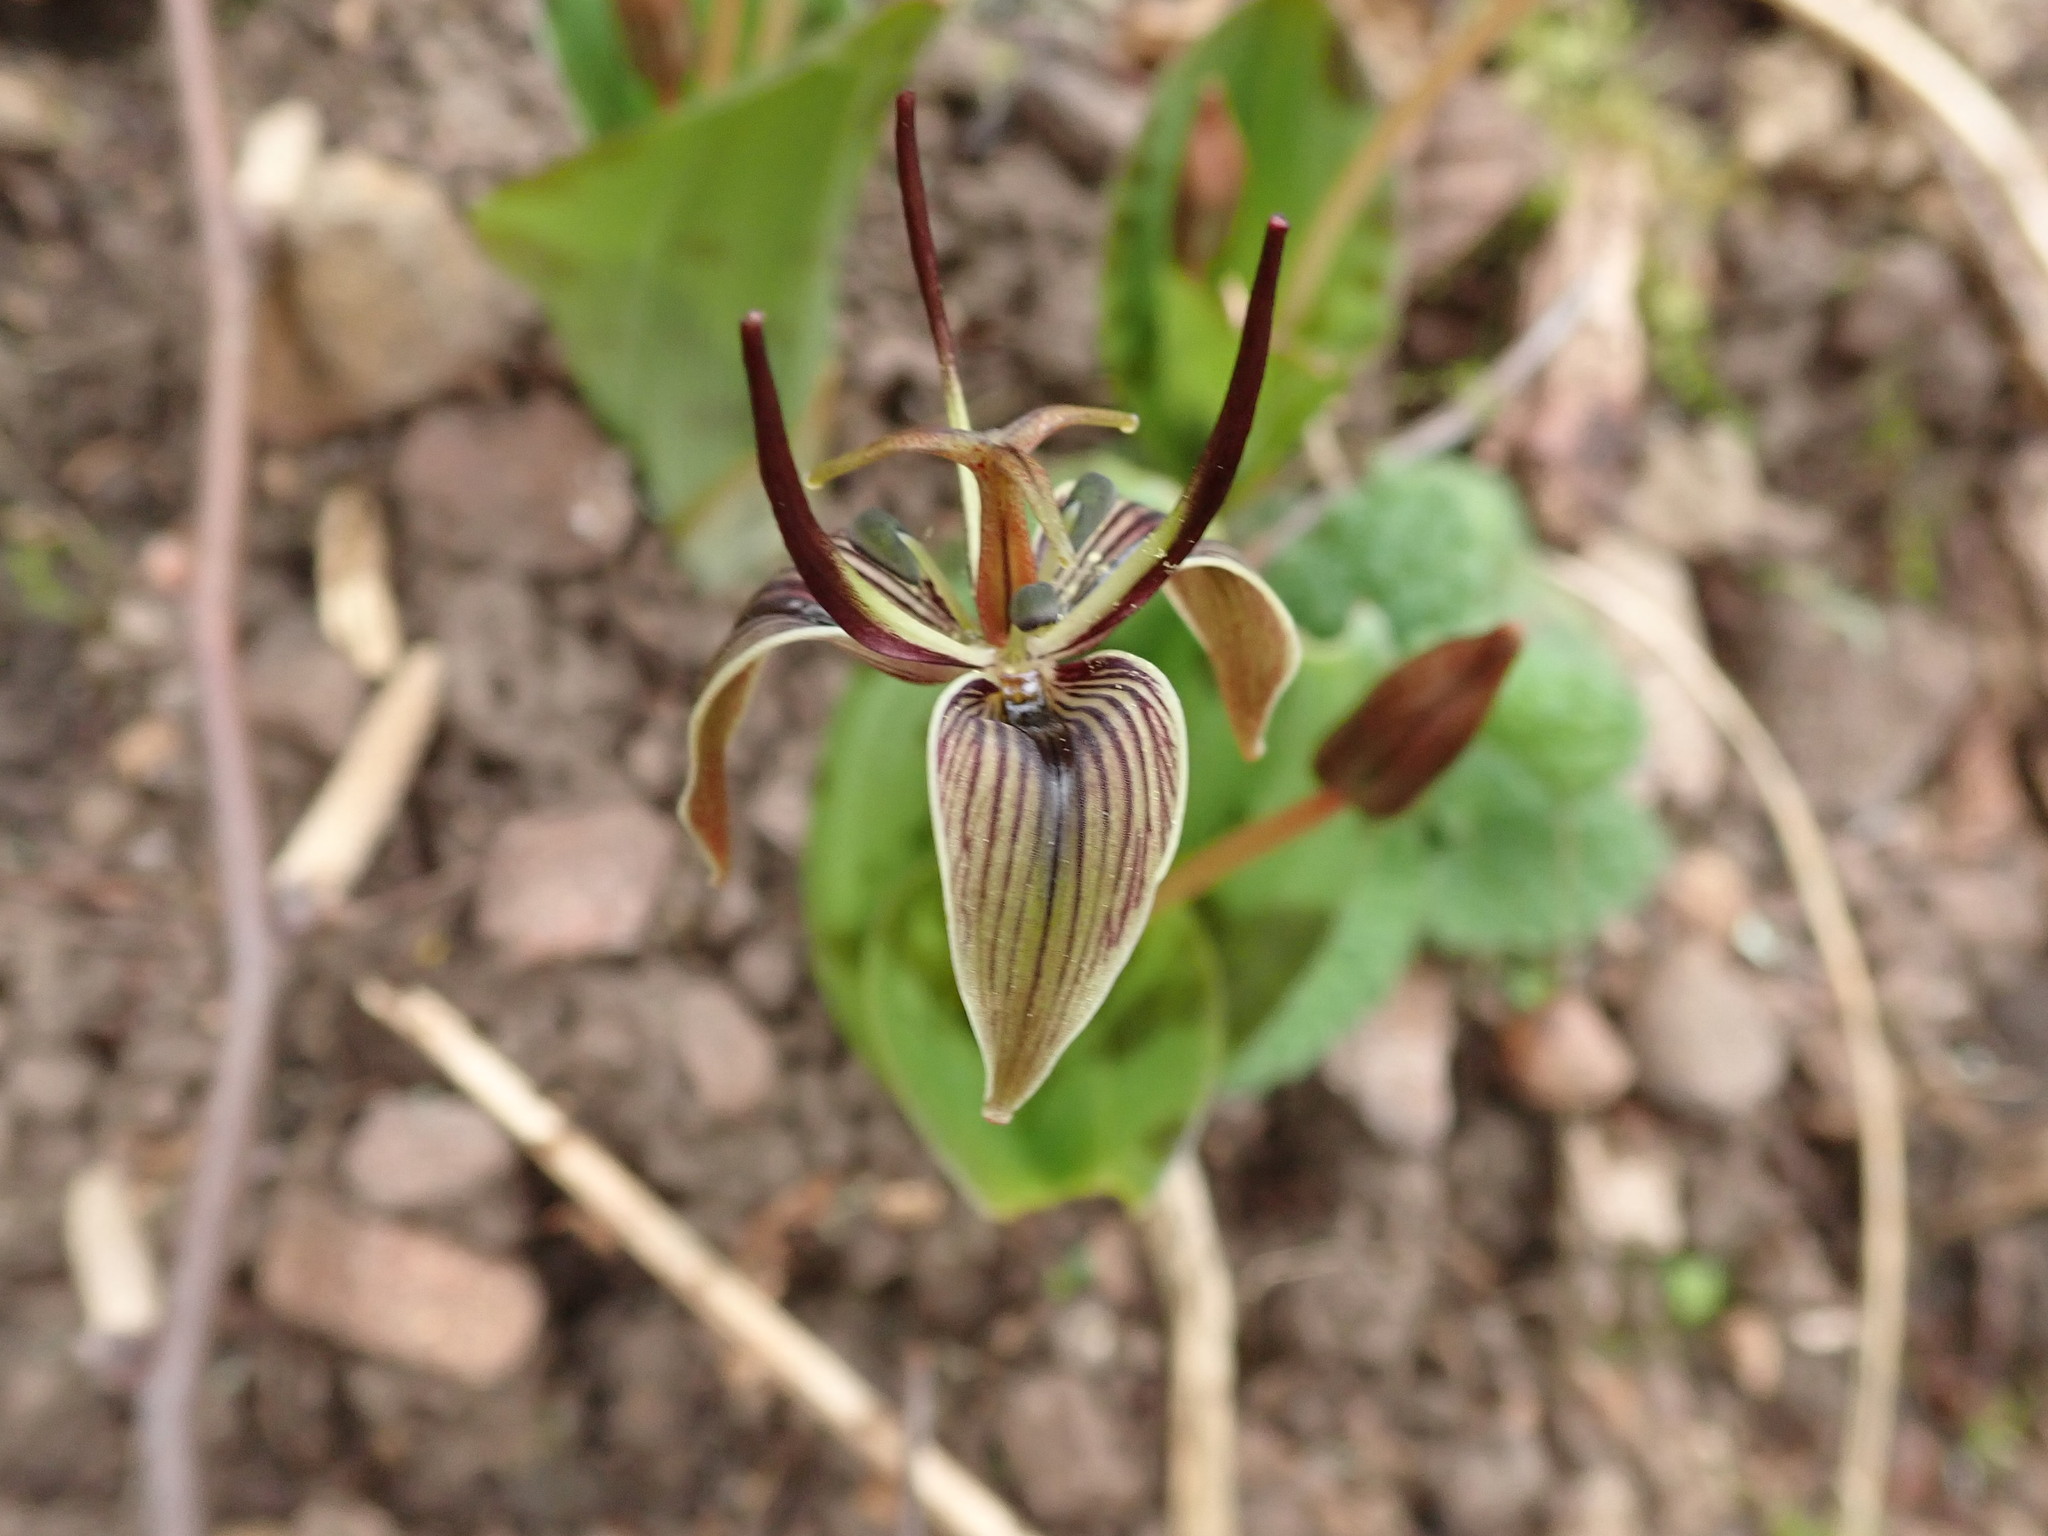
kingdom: Plantae
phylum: Tracheophyta
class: Liliopsida
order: Liliales
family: Liliaceae
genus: Scoliopus
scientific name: Scoliopus bigelovii
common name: Foetid adder's-tongue
